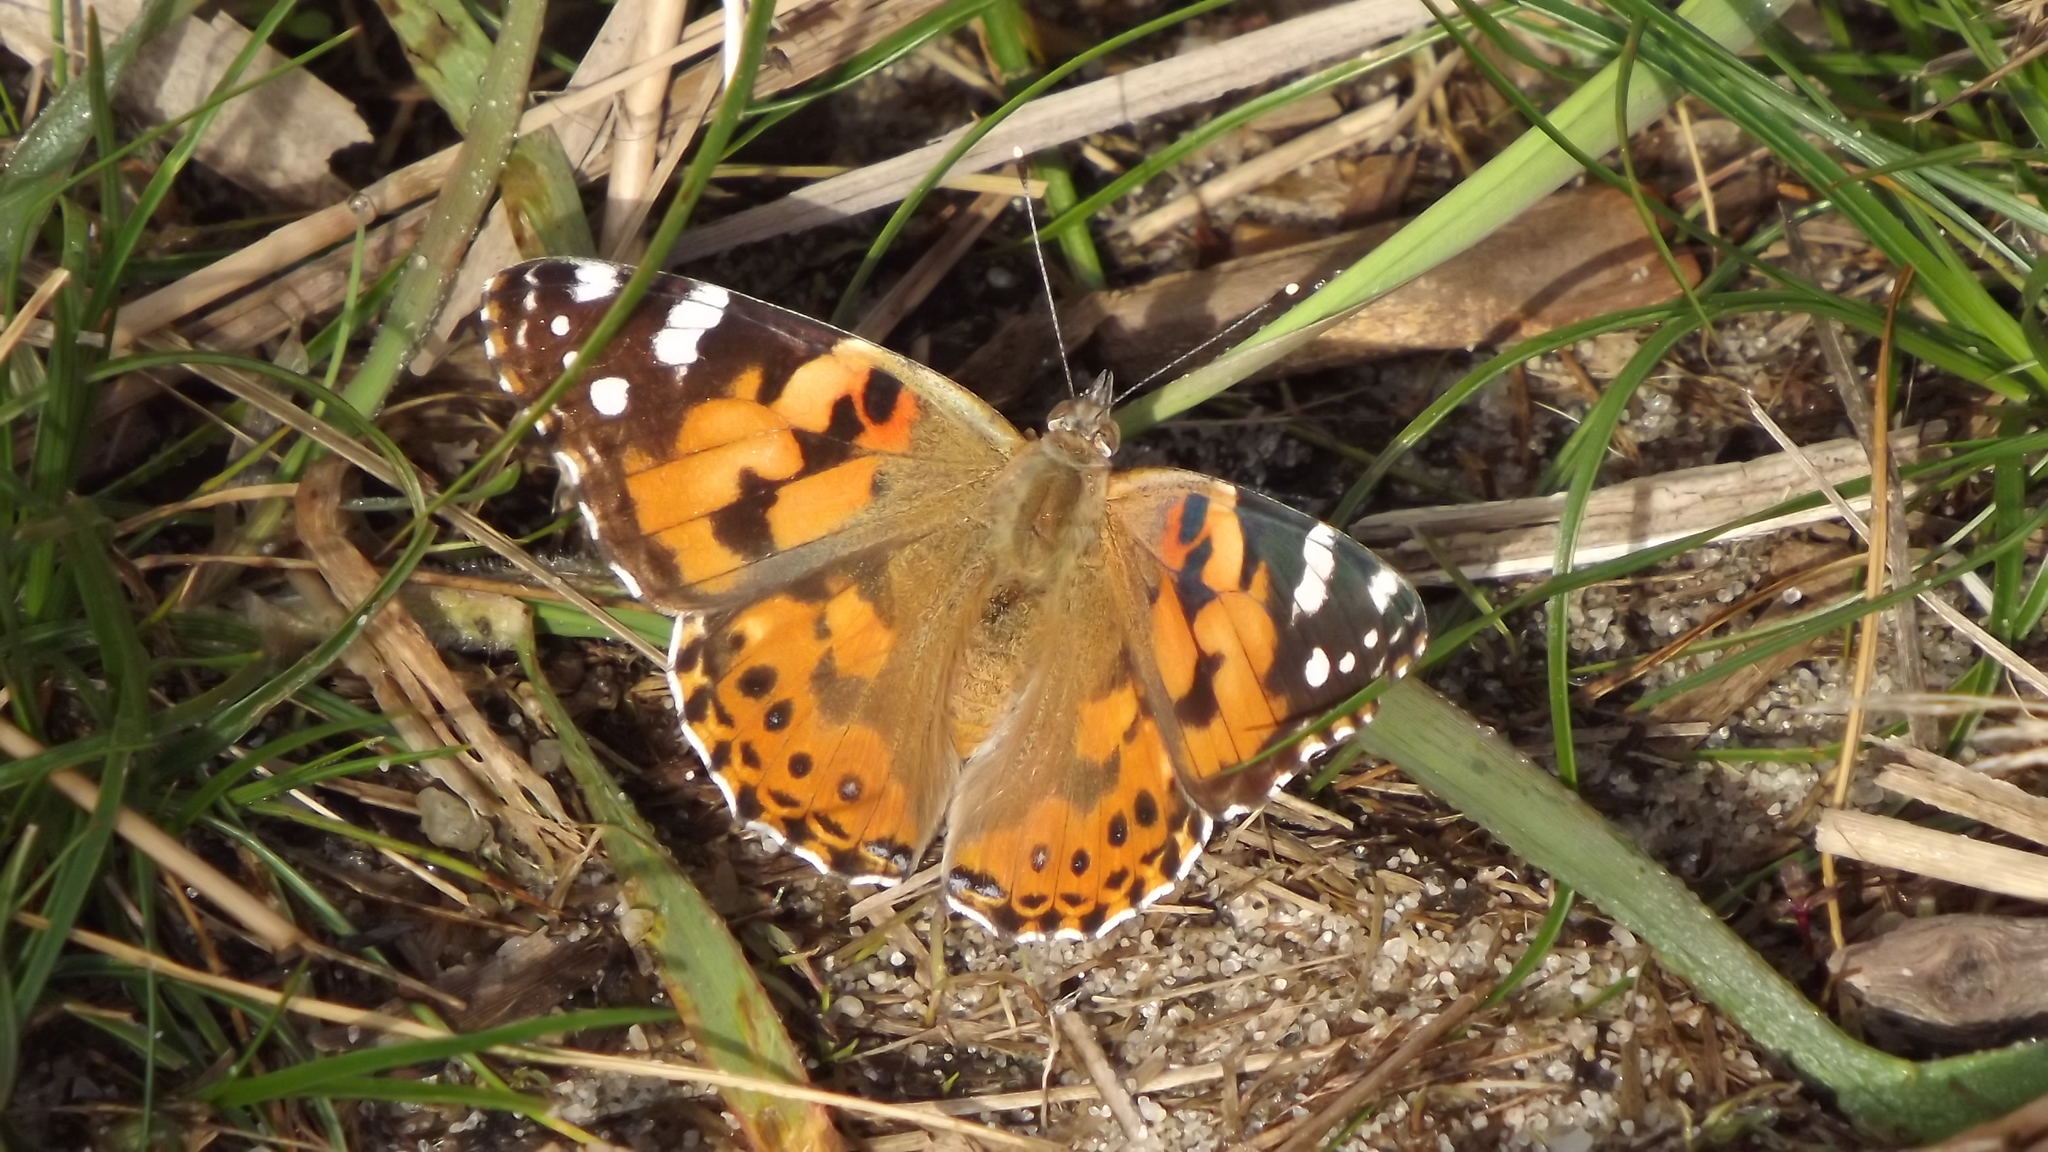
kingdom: Animalia
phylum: Arthropoda
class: Insecta
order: Lepidoptera
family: Nymphalidae
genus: Vanessa
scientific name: Vanessa cardui
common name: Painted lady
